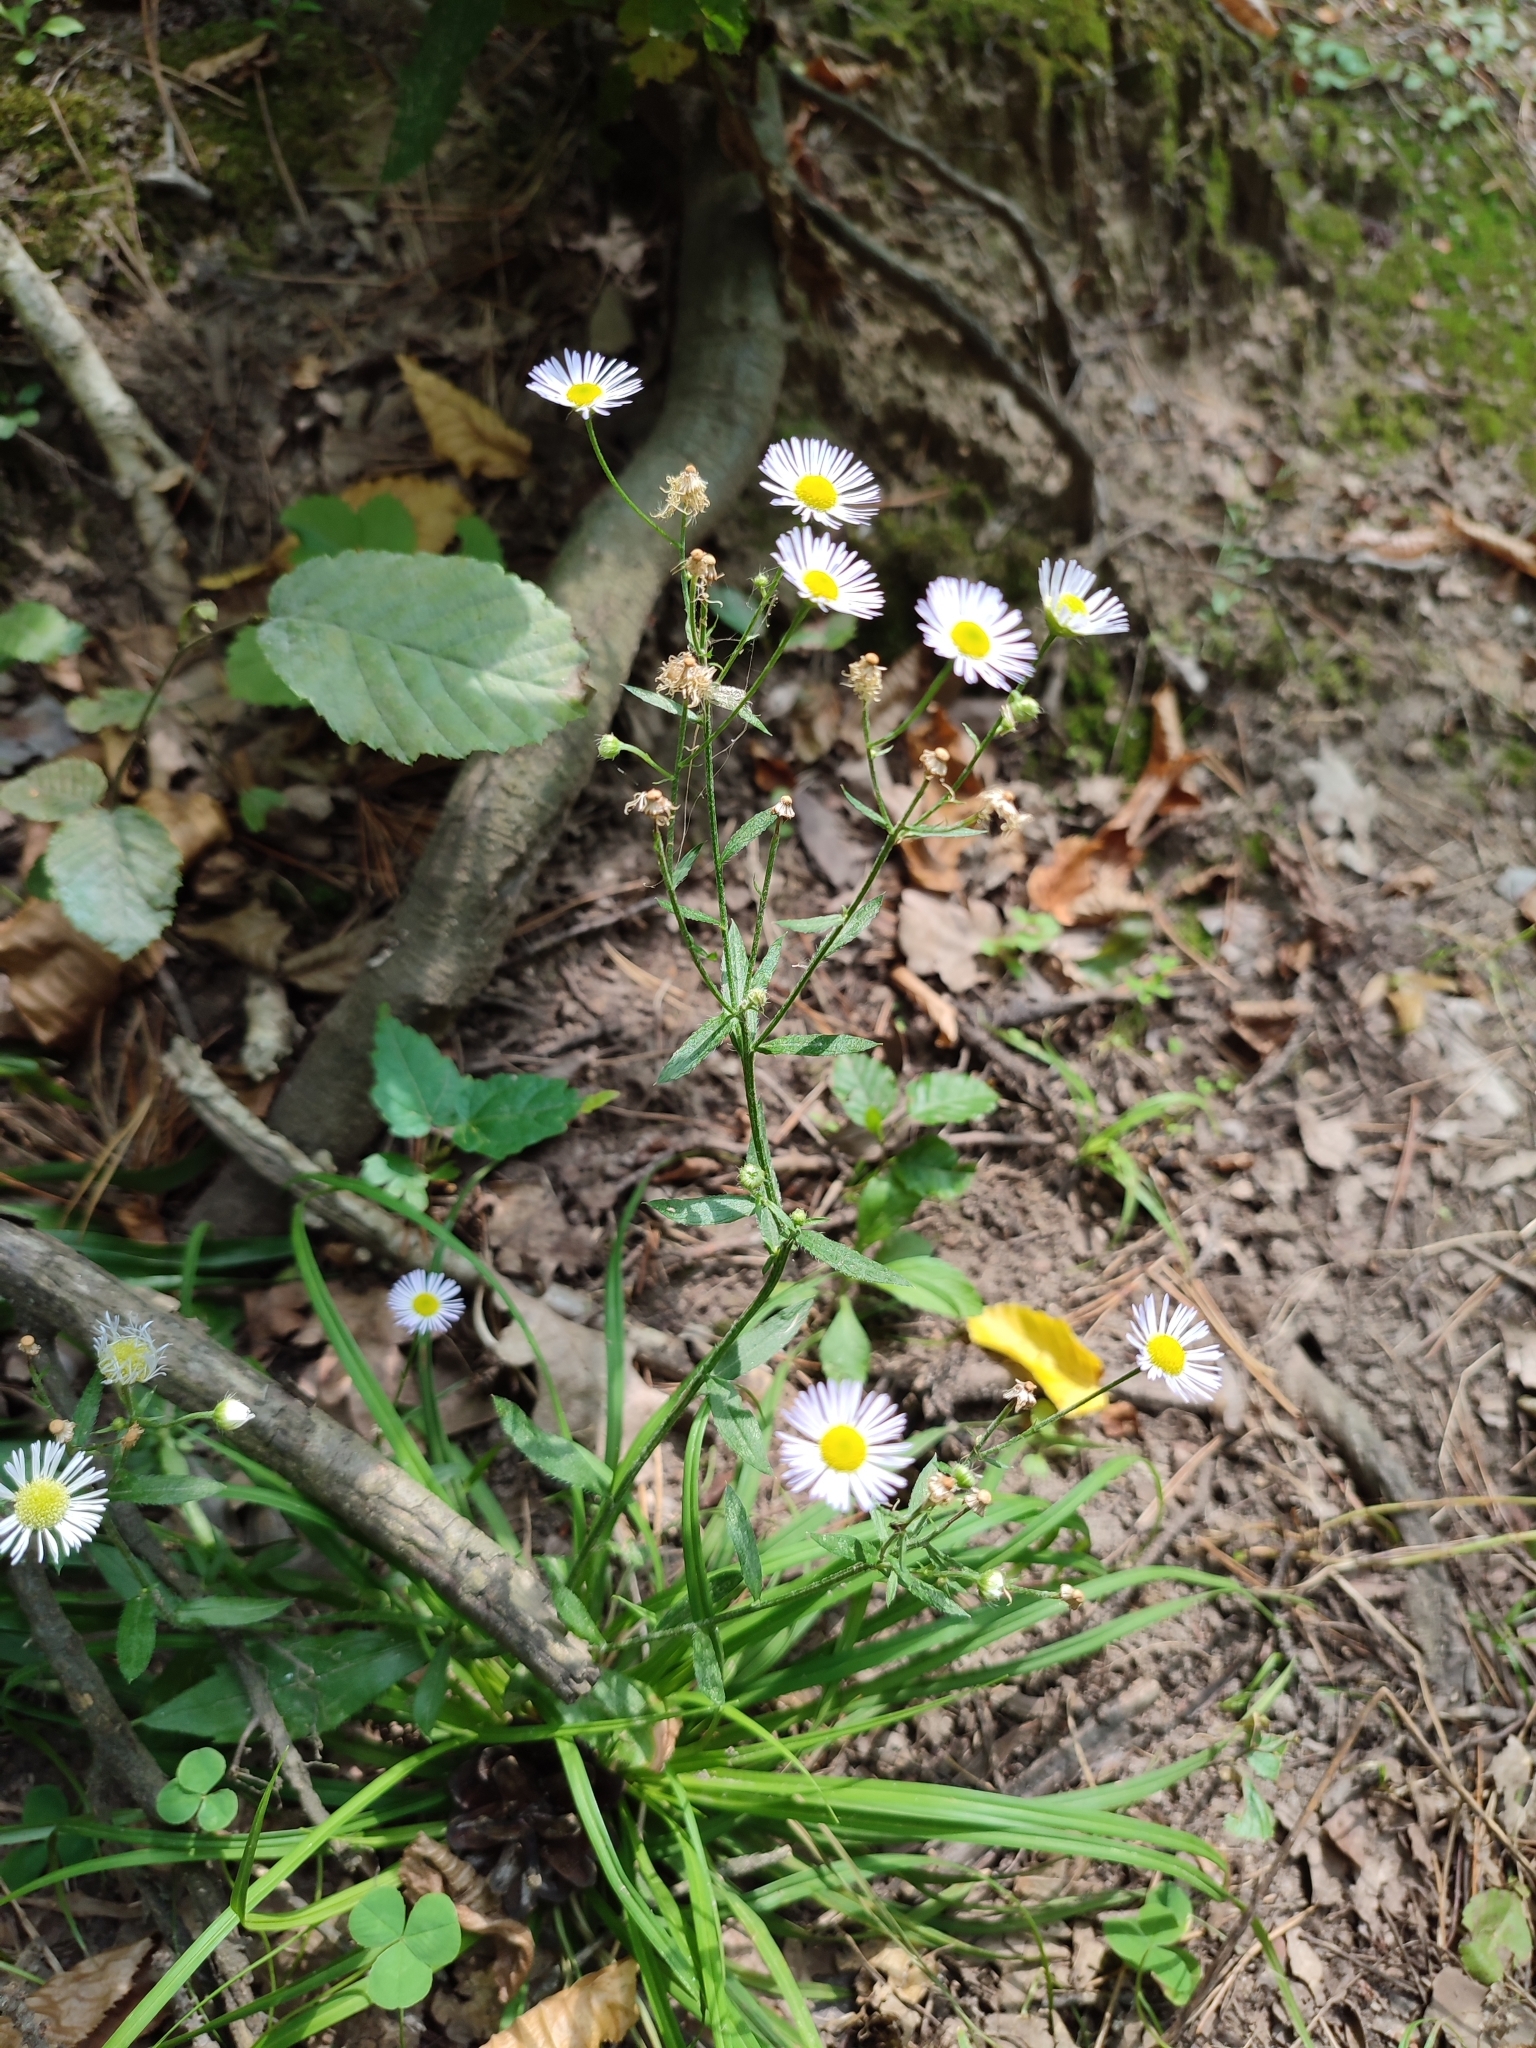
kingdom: Plantae
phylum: Tracheophyta
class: Magnoliopsida
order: Asterales
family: Asteraceae
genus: Erigeron
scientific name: Erigeron annuus
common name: Tall fleabane
